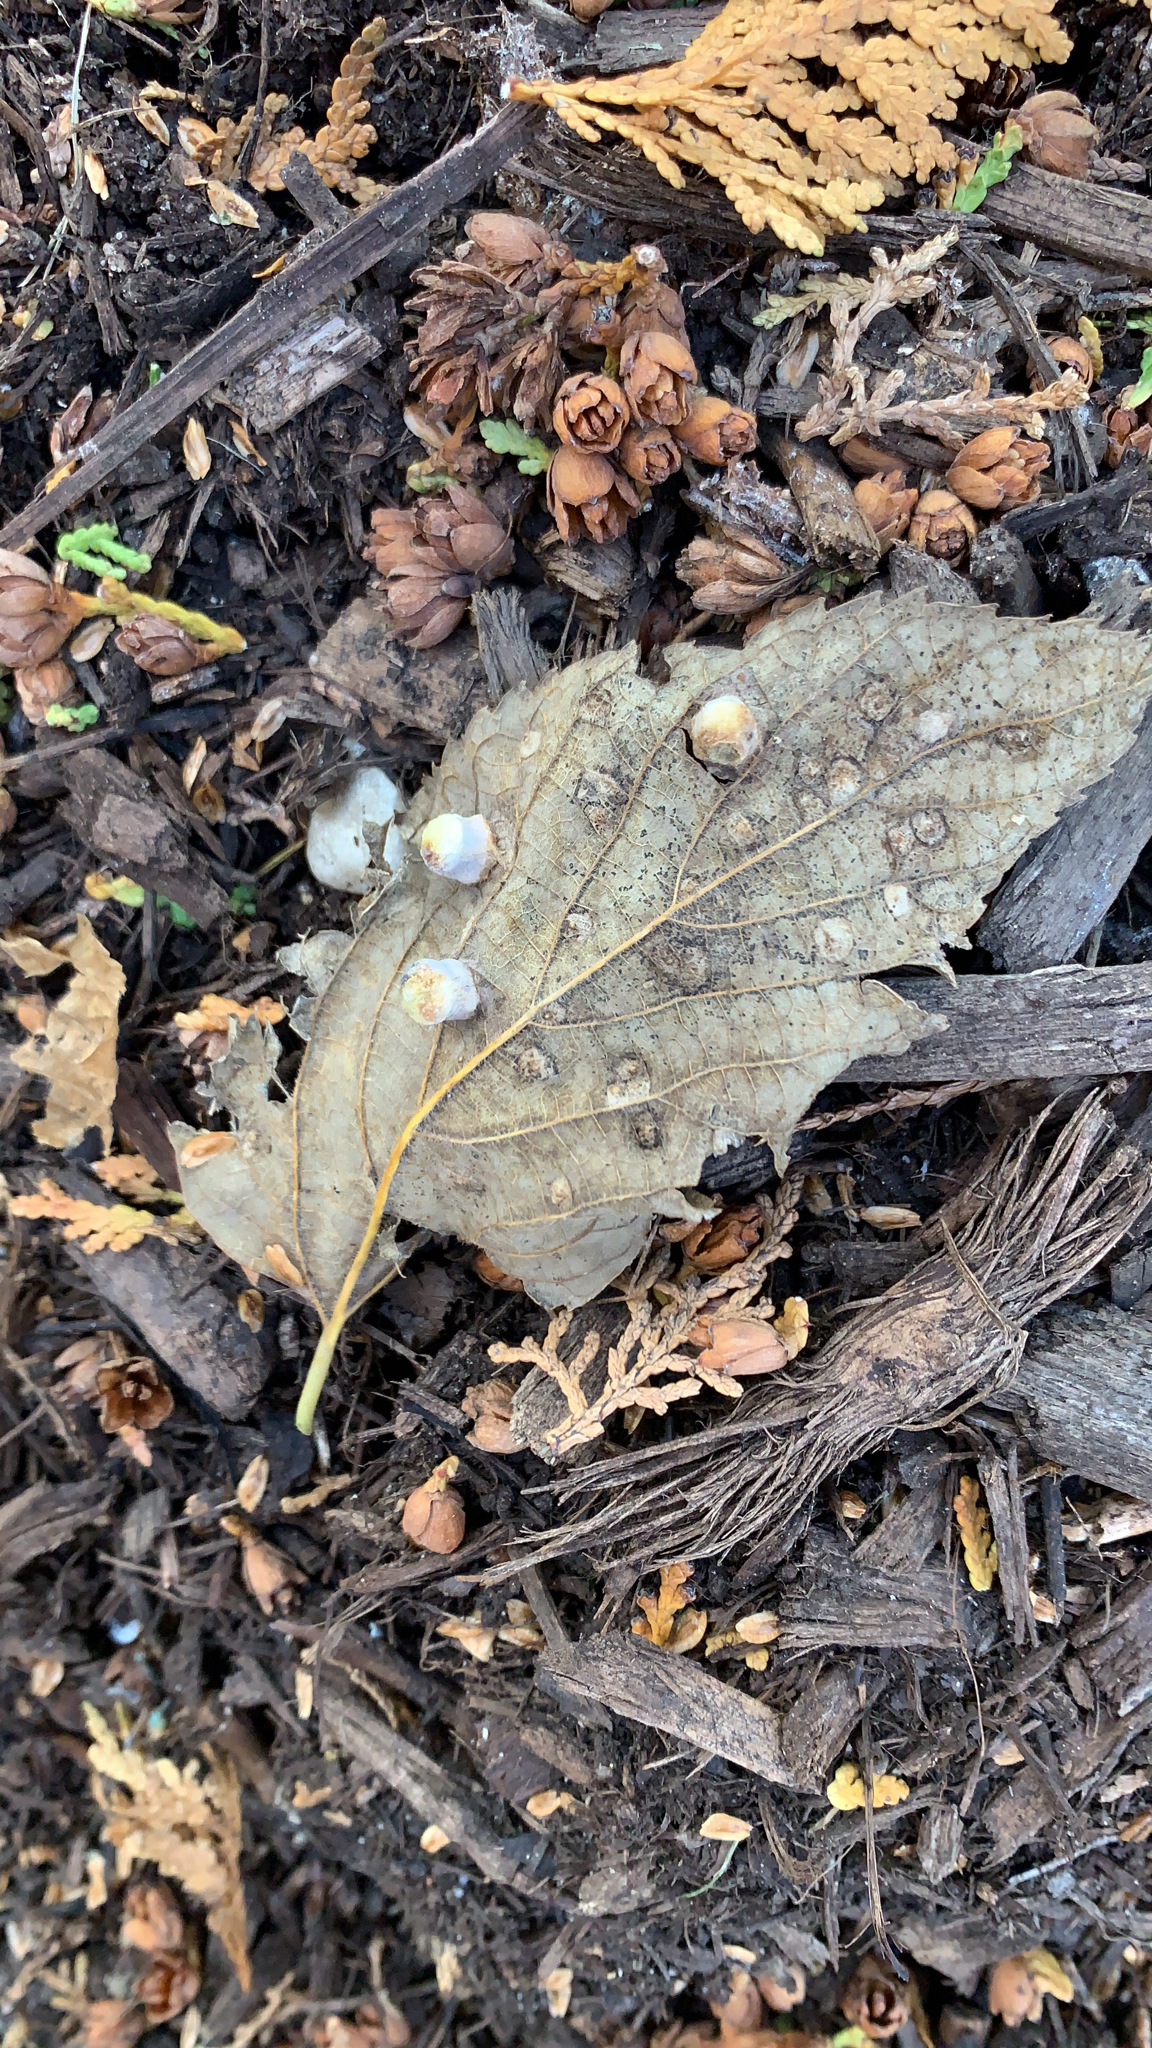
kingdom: Animalia
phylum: Arthropoda
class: Insecta
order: Hemiptera
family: Aphalaridae
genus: Pachypsylla
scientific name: Pachypsylla celtidismamma
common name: Hackberry nipplegall psyllid
